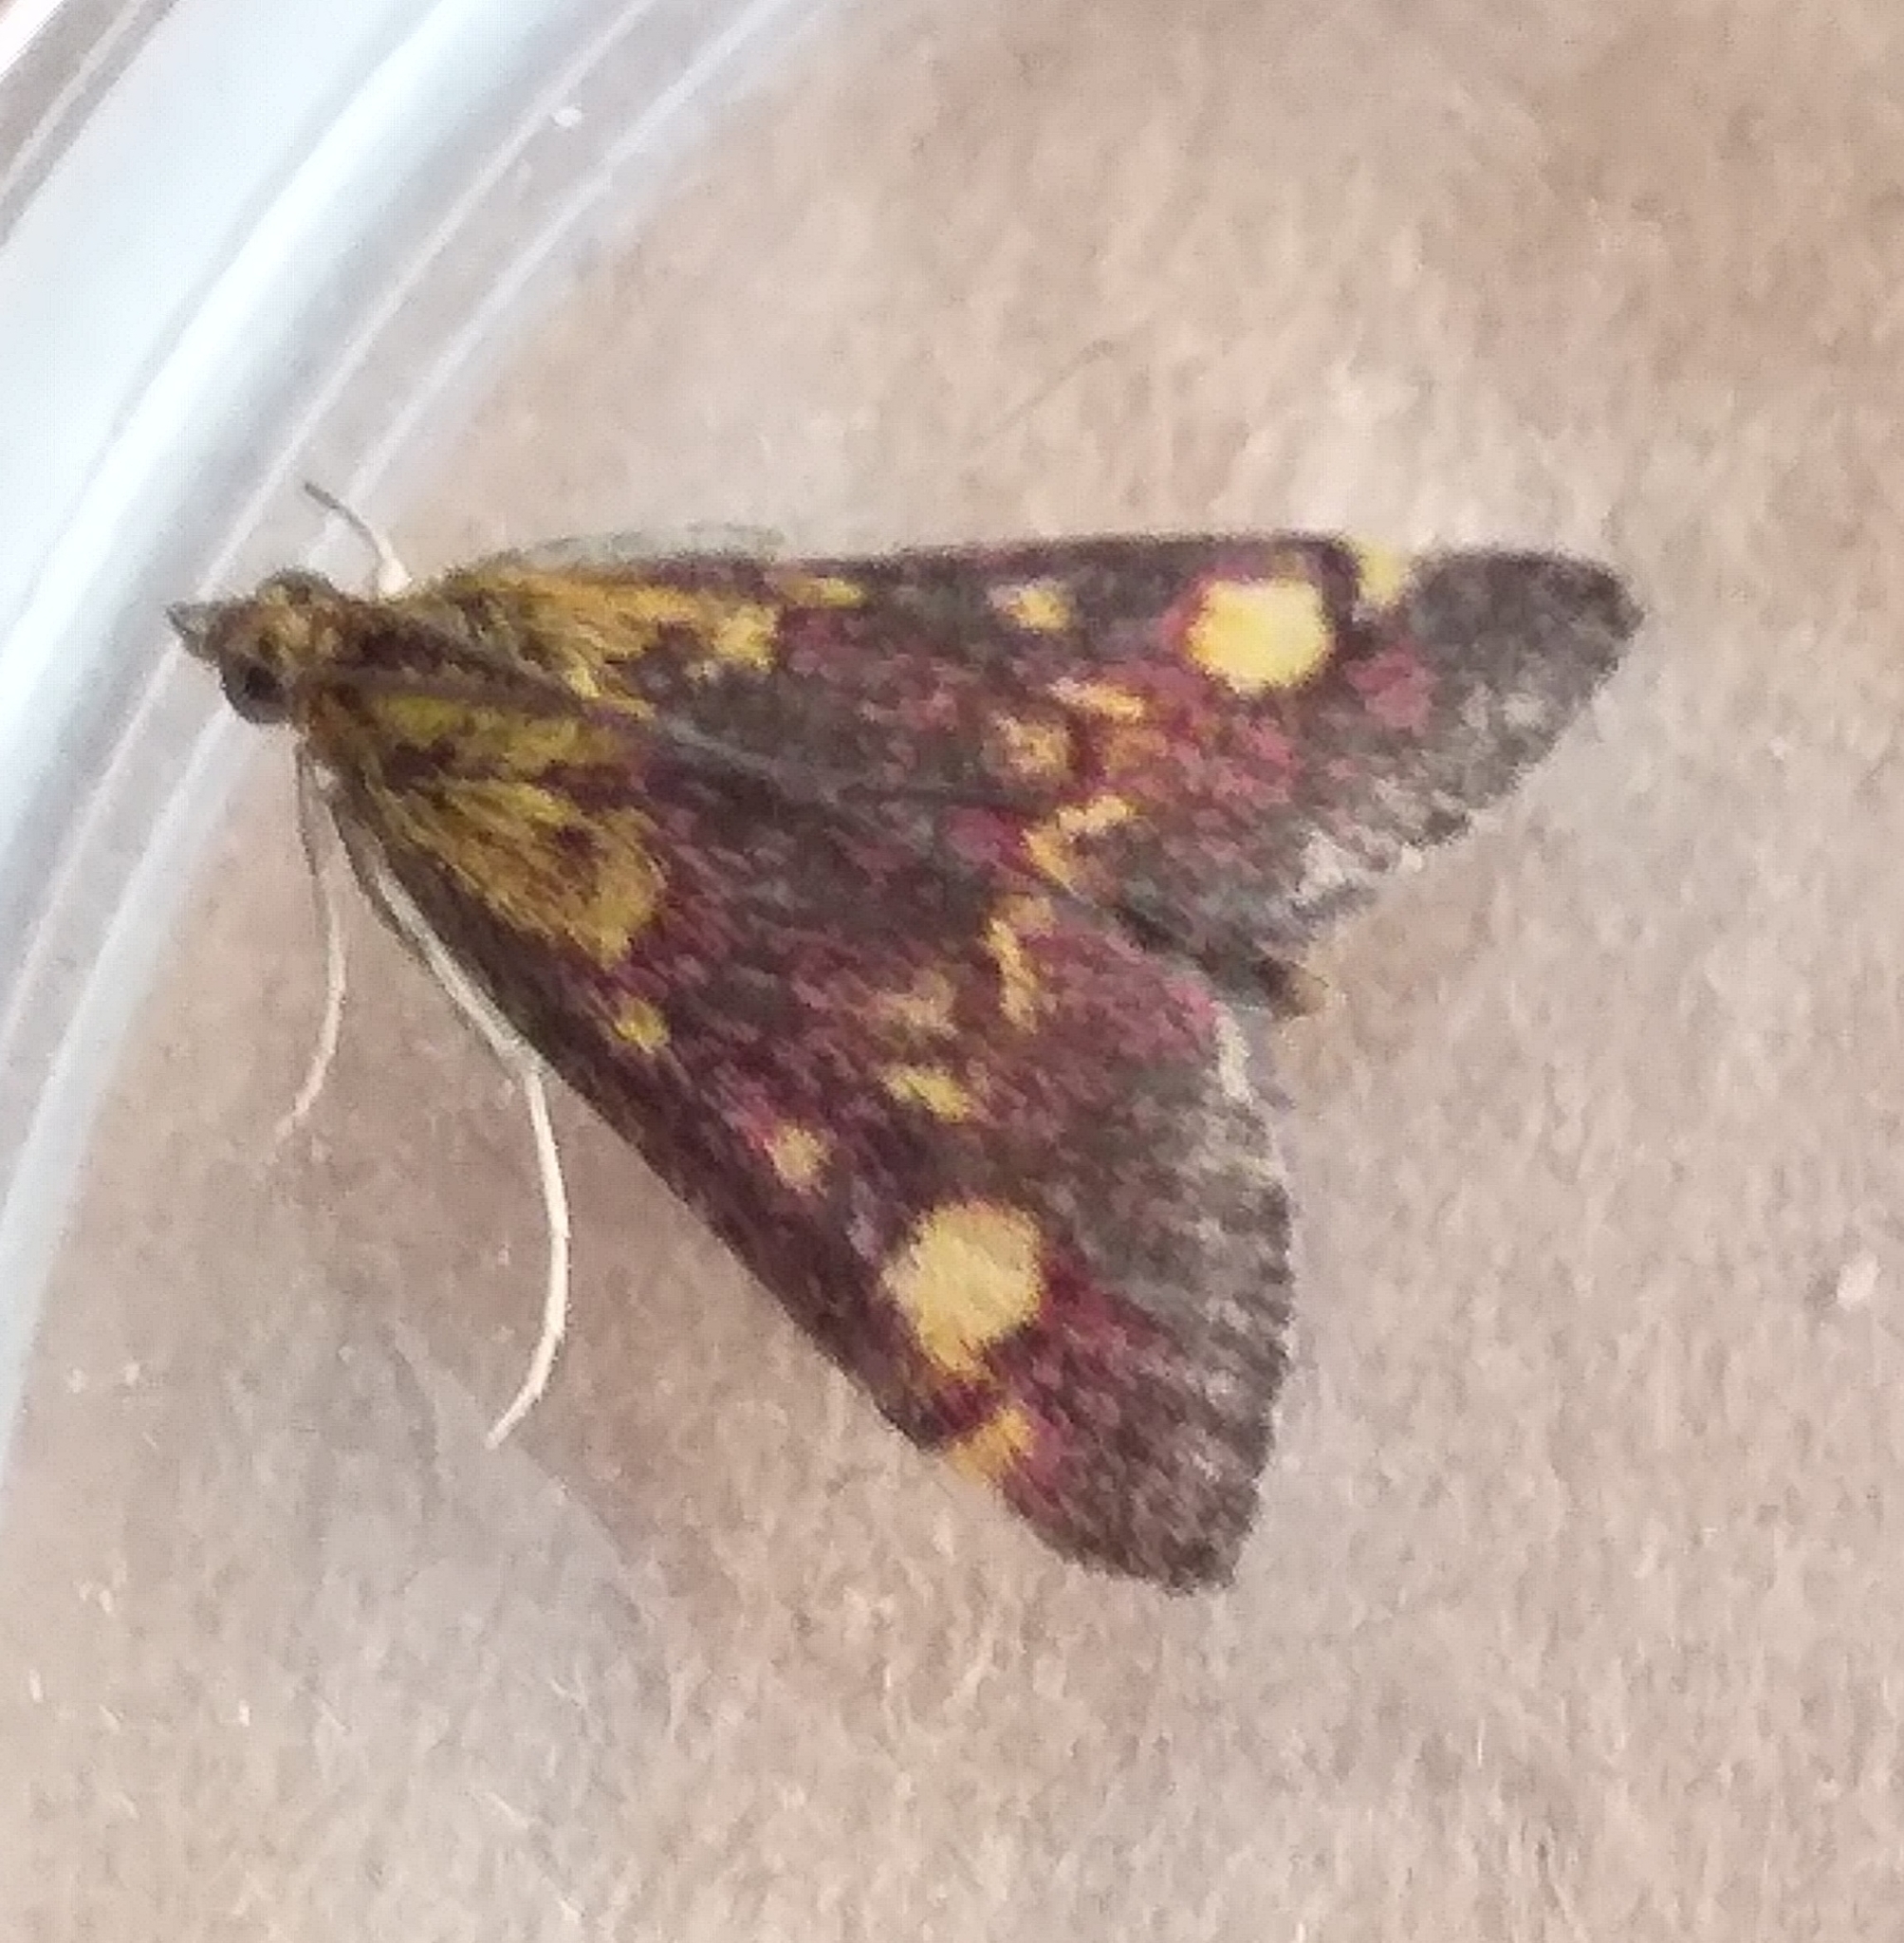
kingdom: Animalia
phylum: Arthropoda
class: Insecta
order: Lepidoptera
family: Crambidae
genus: Pyrausta
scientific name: Pyrausta aurata
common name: Small purple & gold
